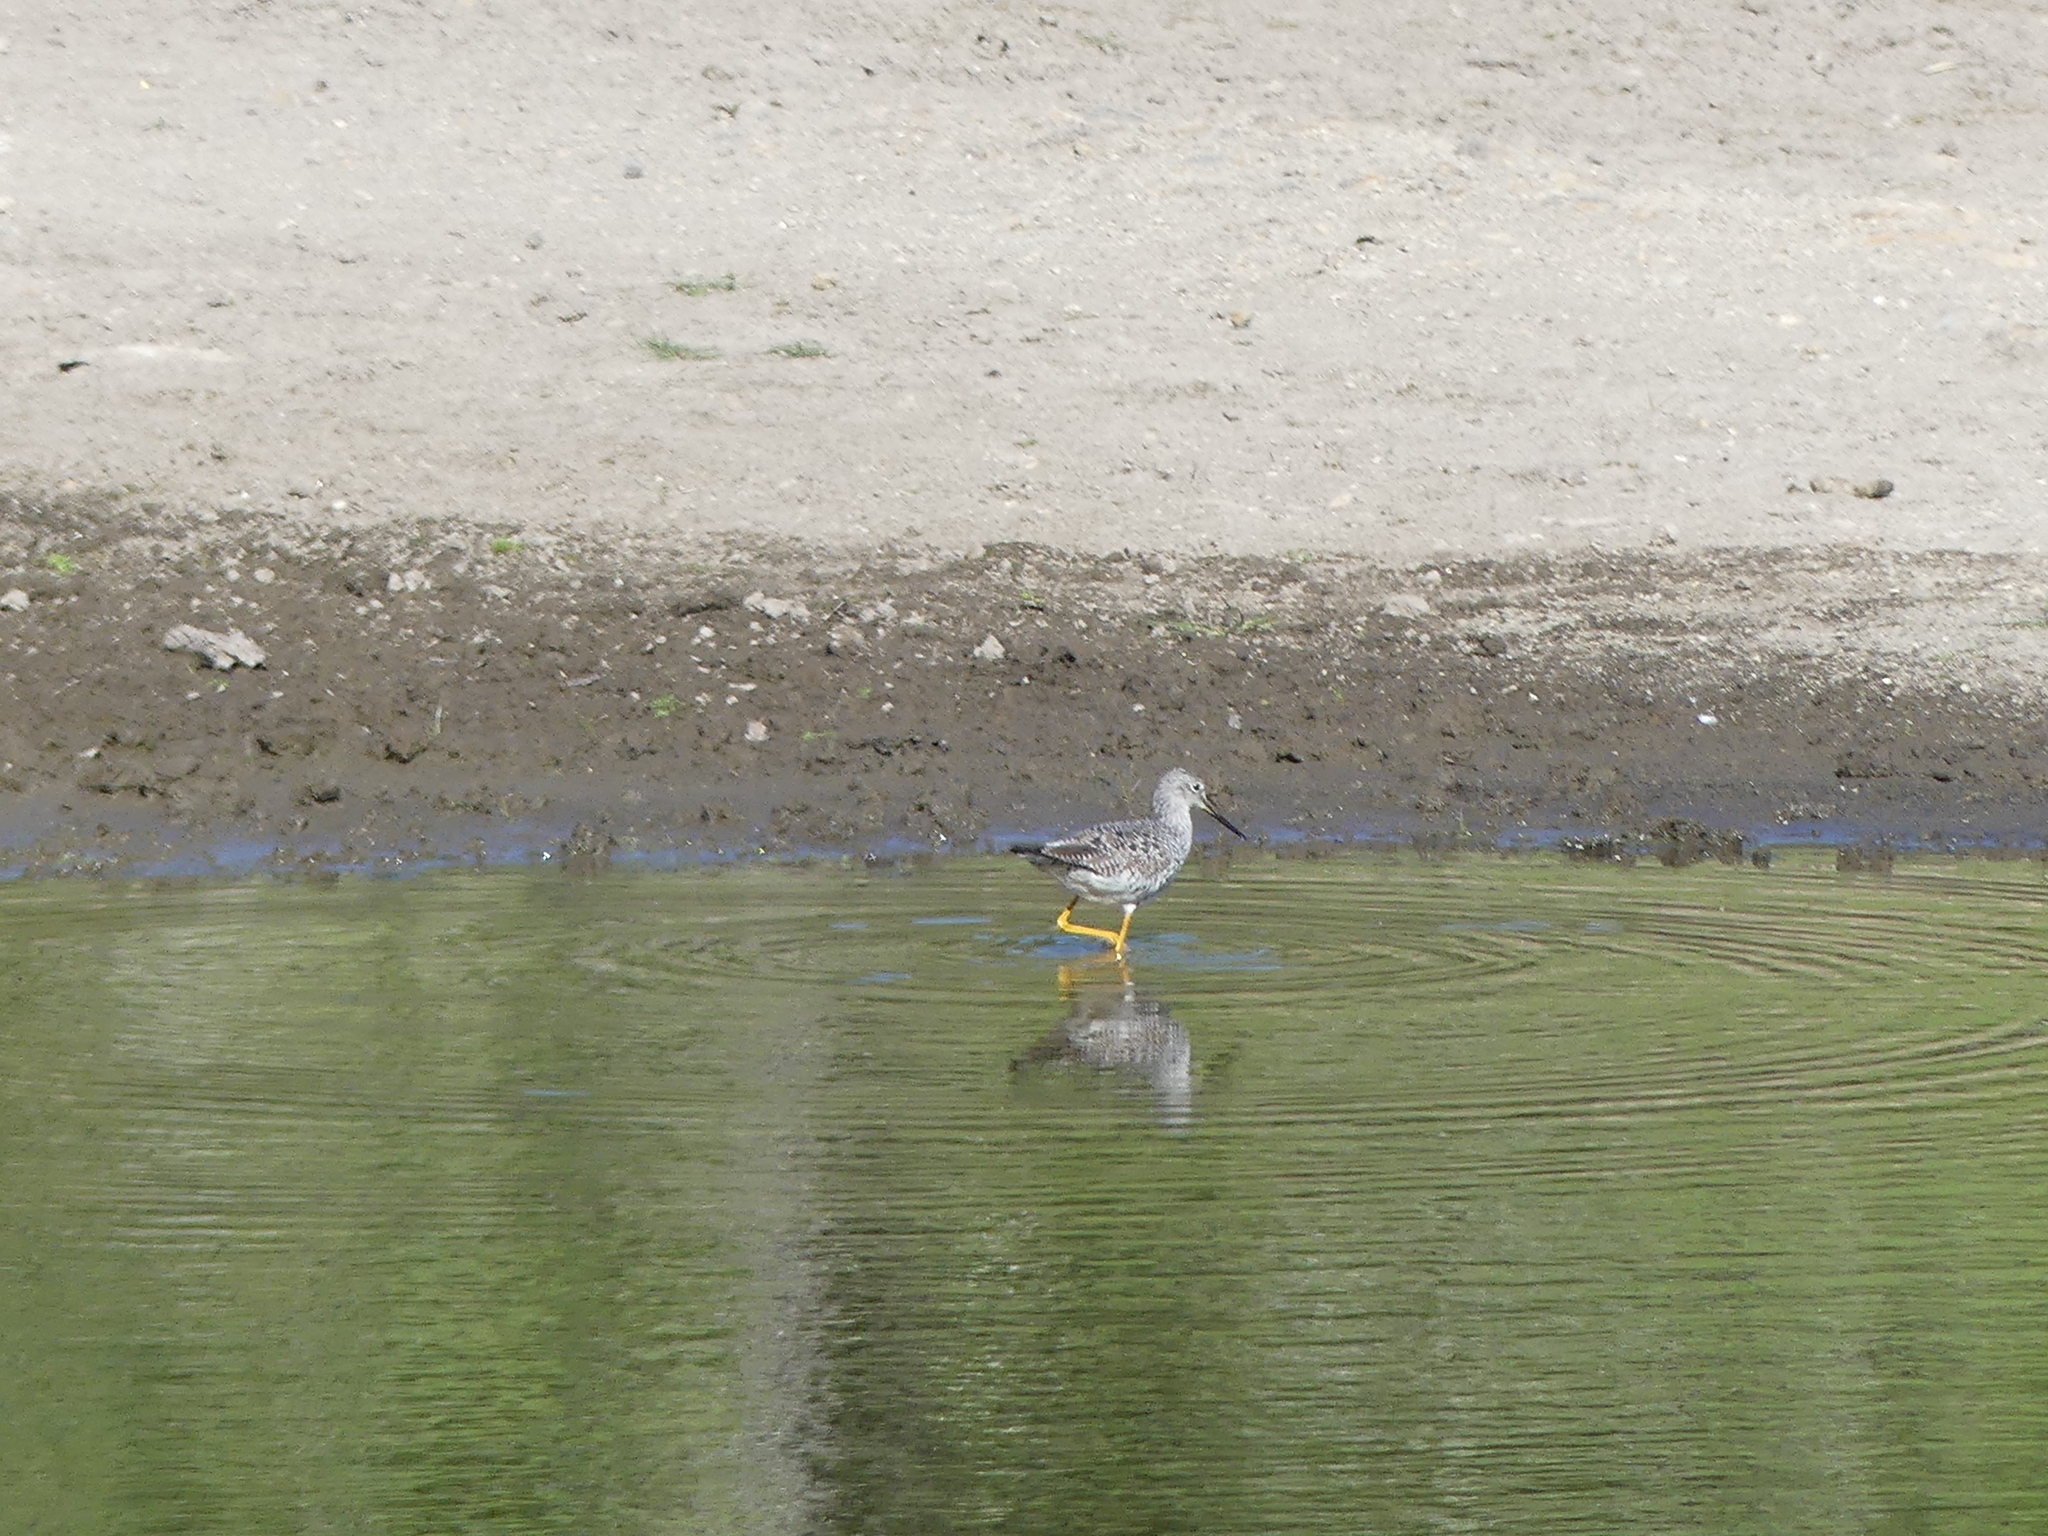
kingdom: Animalia
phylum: Chordata
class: Aves
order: Charadriiformes
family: Scolopacidae
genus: Tringa
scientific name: Tringa melanoleuca
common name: Greater yellowlegs
